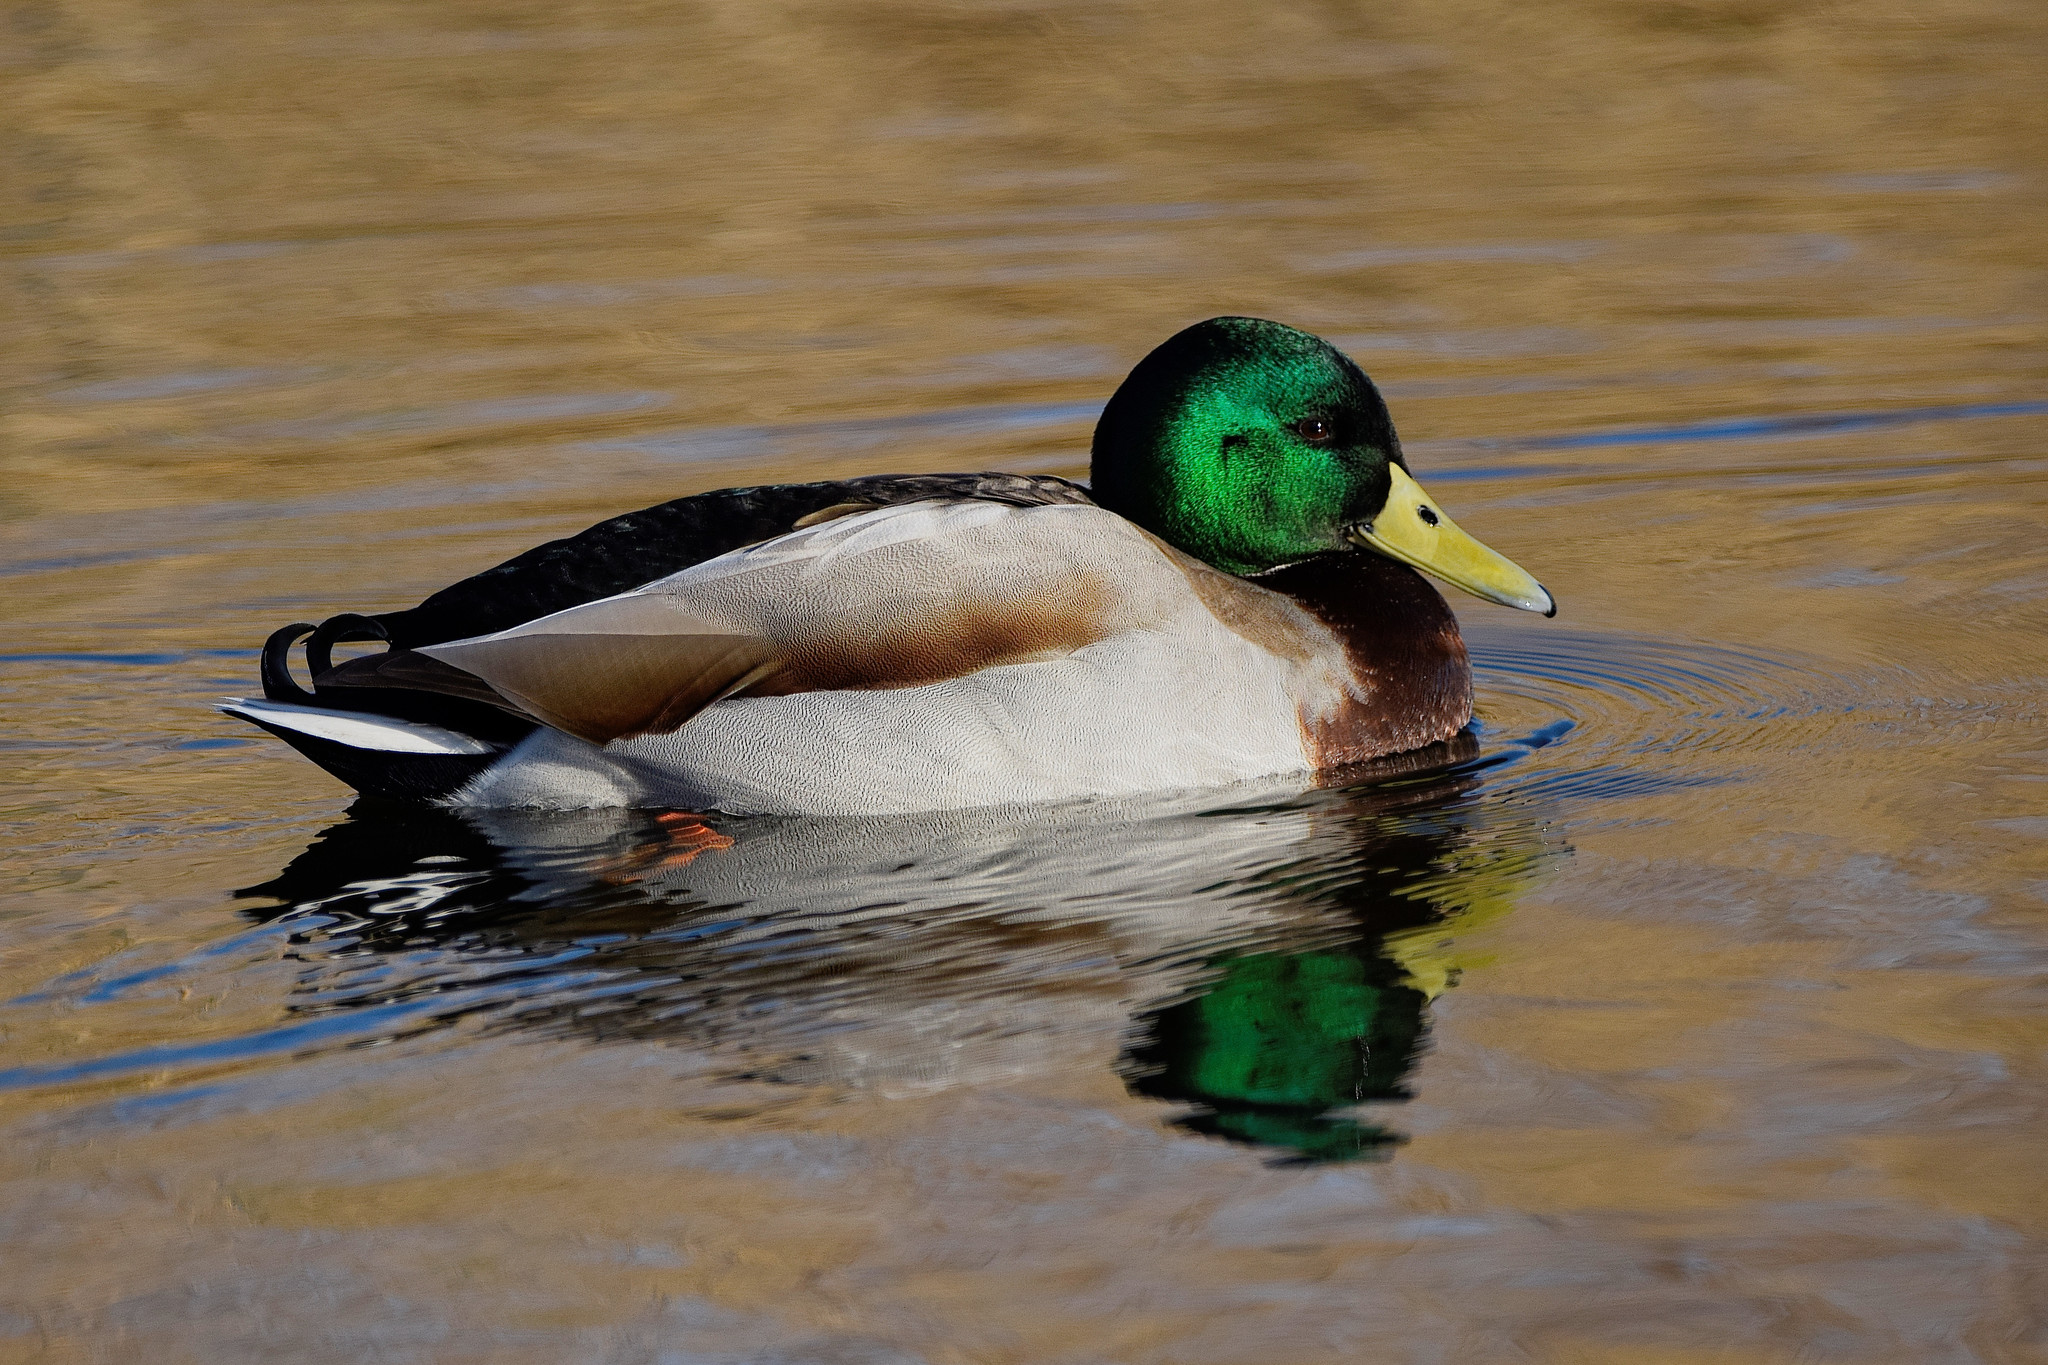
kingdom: Animalia
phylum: Chordata
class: Aves
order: Anseriformes
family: Anatidae
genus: Anas
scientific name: Anas platyrhynchos
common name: Mallard
